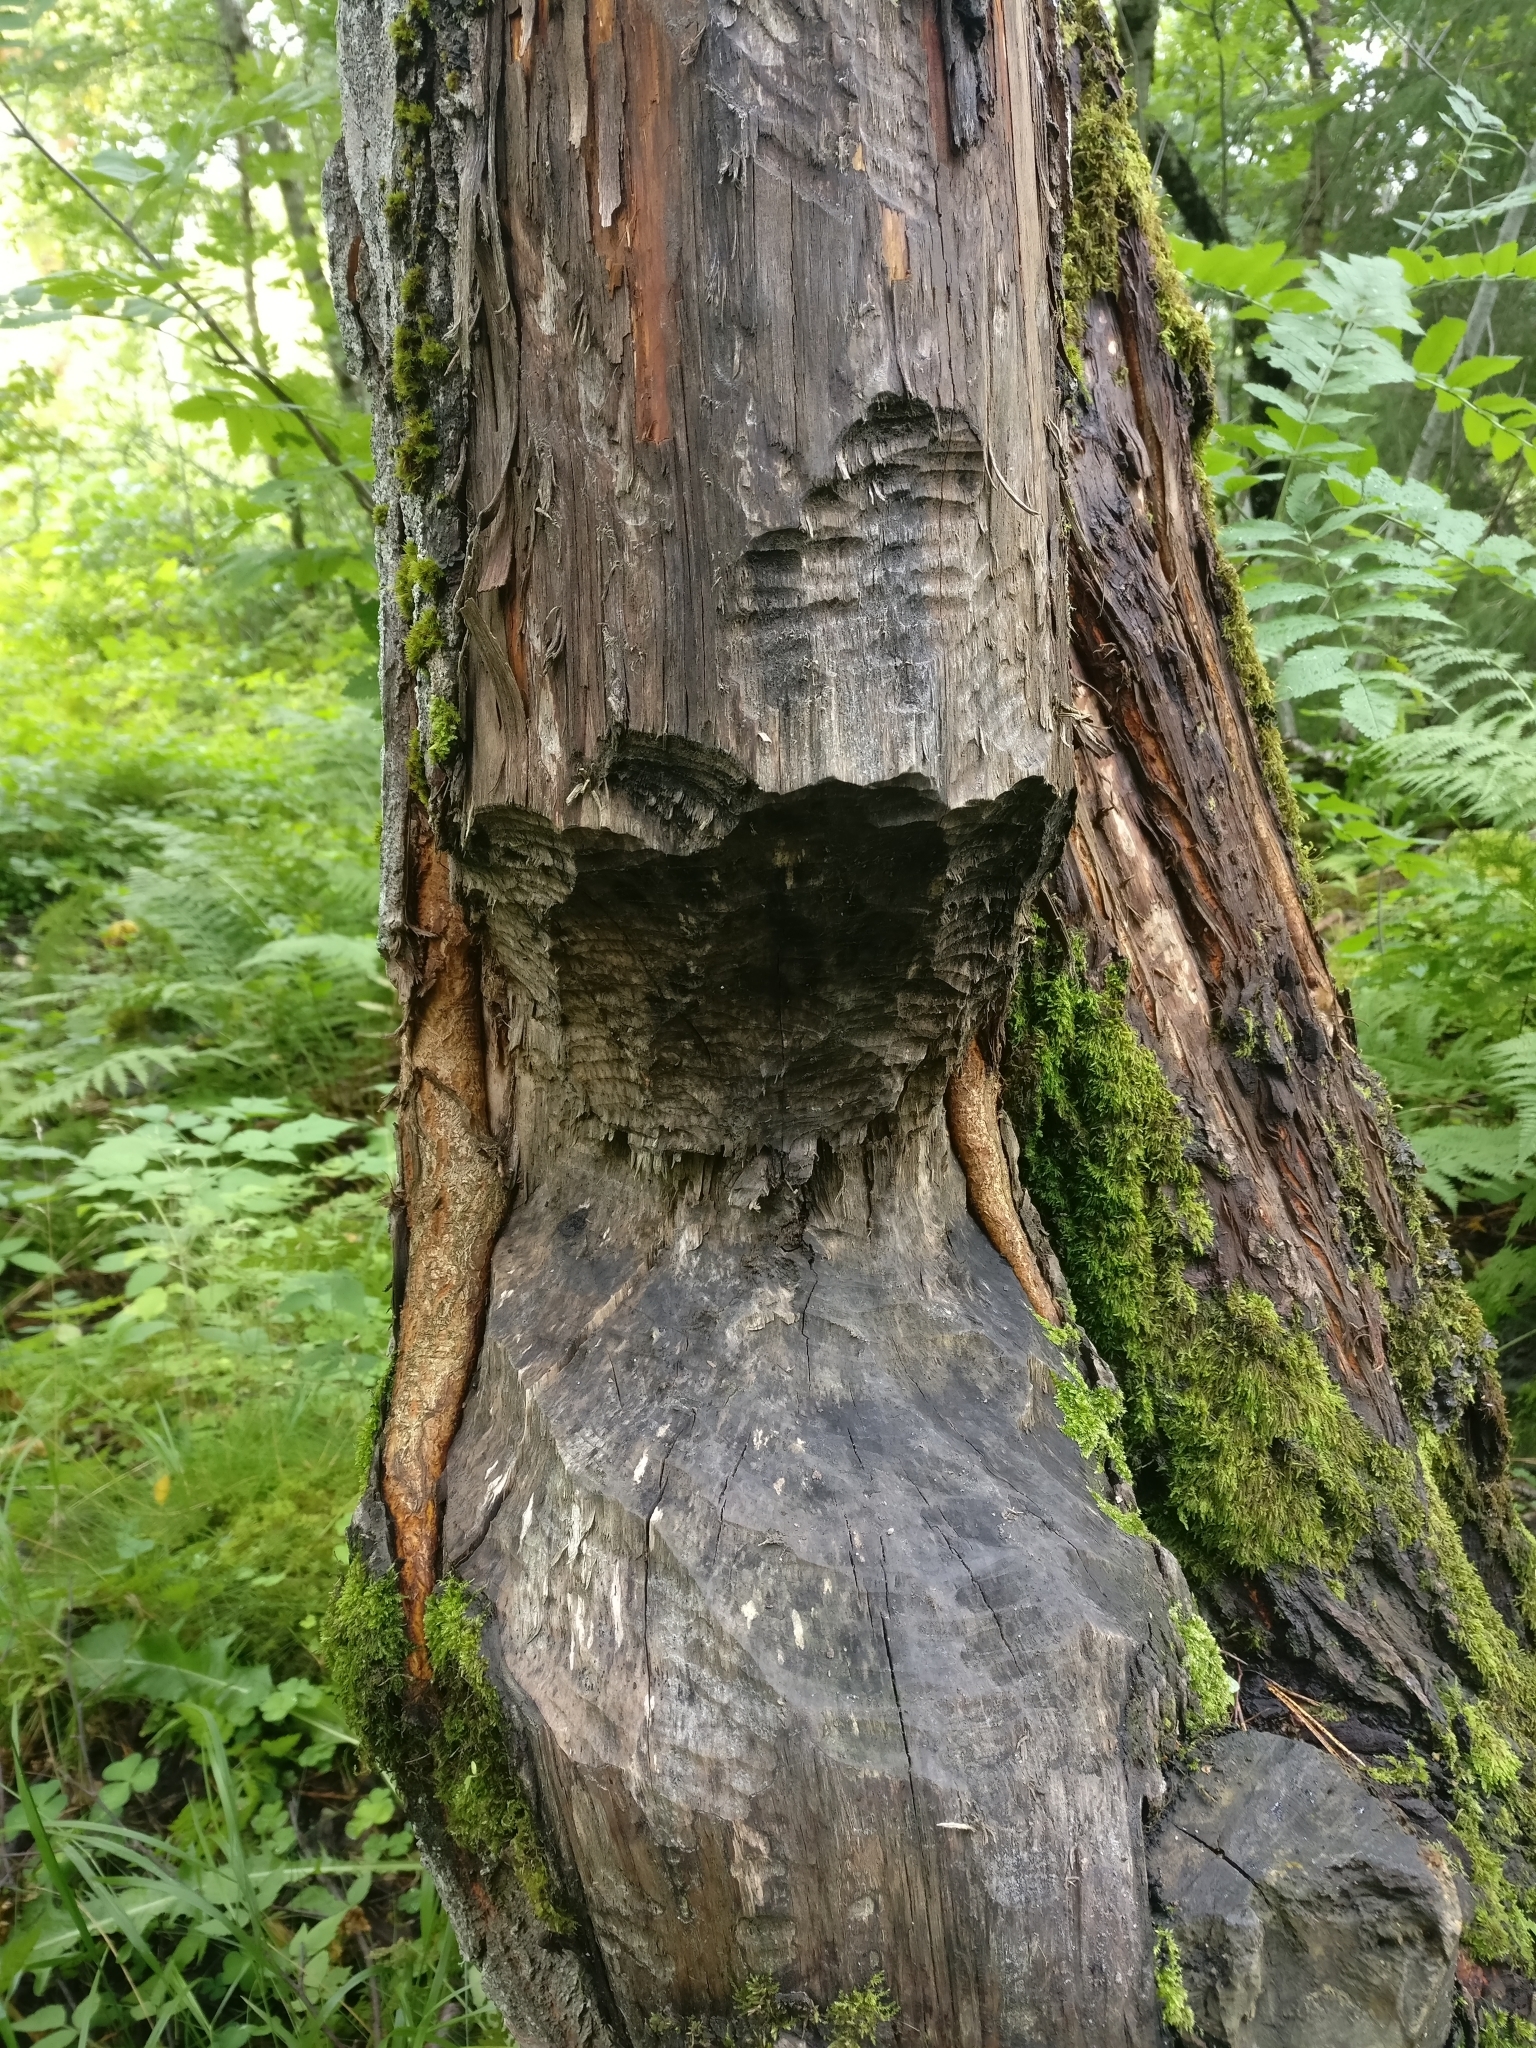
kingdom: Animalia
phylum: Chordata
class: Mammalia
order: Rodentia
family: Castoridae
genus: Castor
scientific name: Castor fiber
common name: Eurasian beaver
